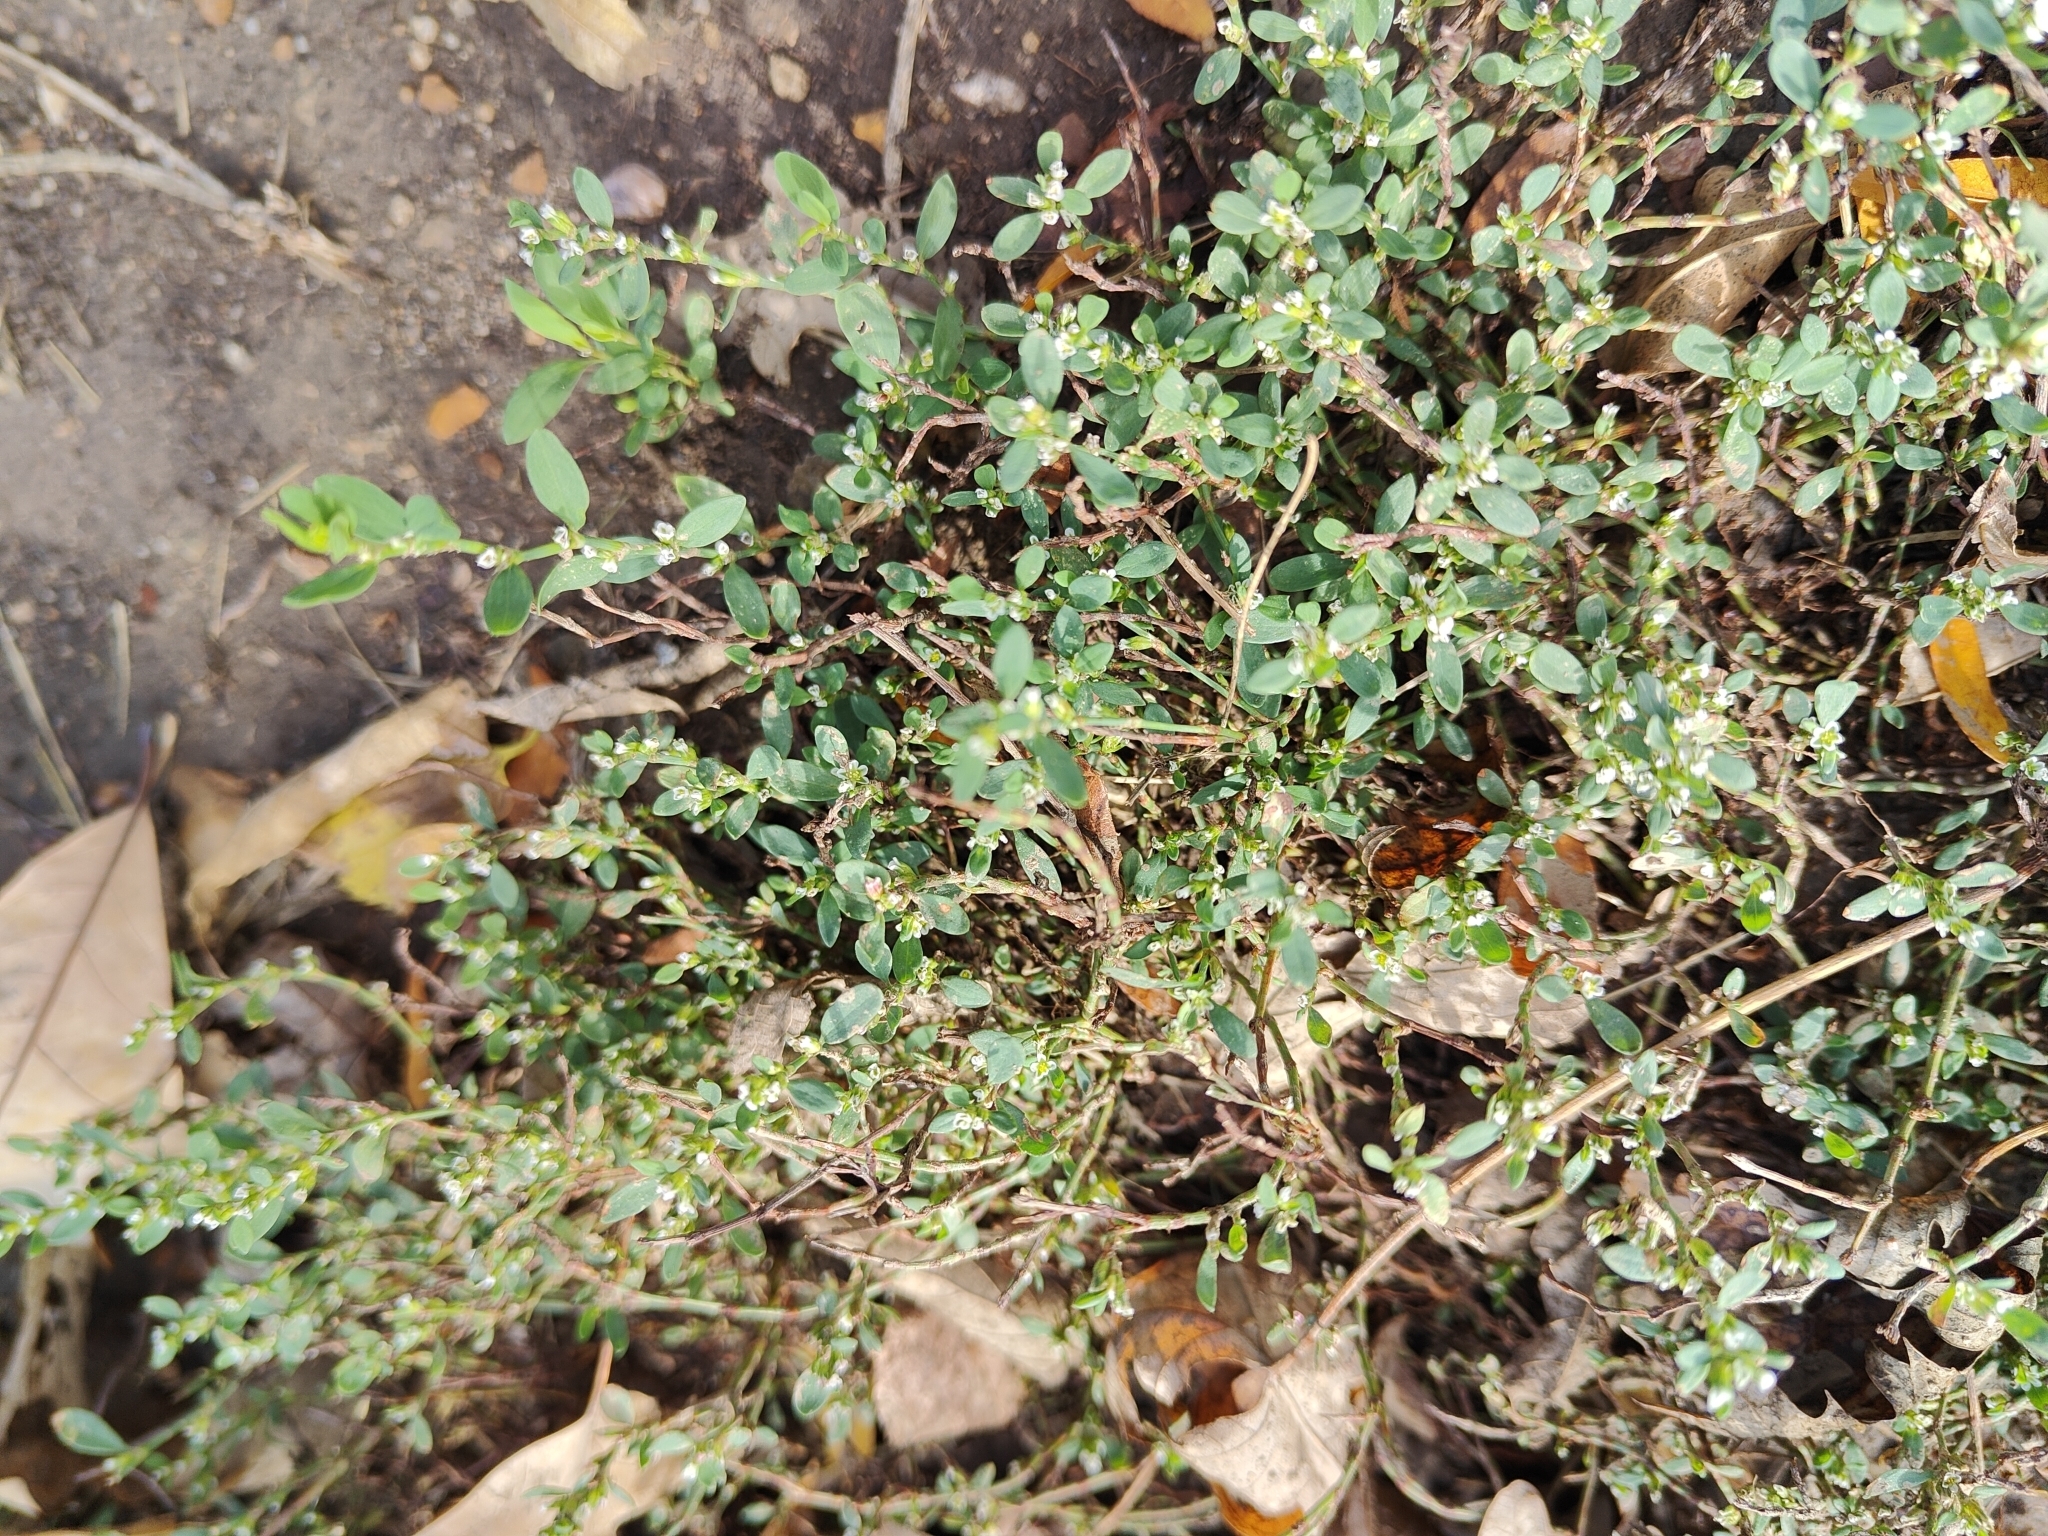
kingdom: Plantae
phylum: Tracheophyta
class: Magnoliopsida
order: Caryophyllales
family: Polygonaceae
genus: Polygonum
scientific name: Polygonum aviculare
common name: Prostrate knotweed
